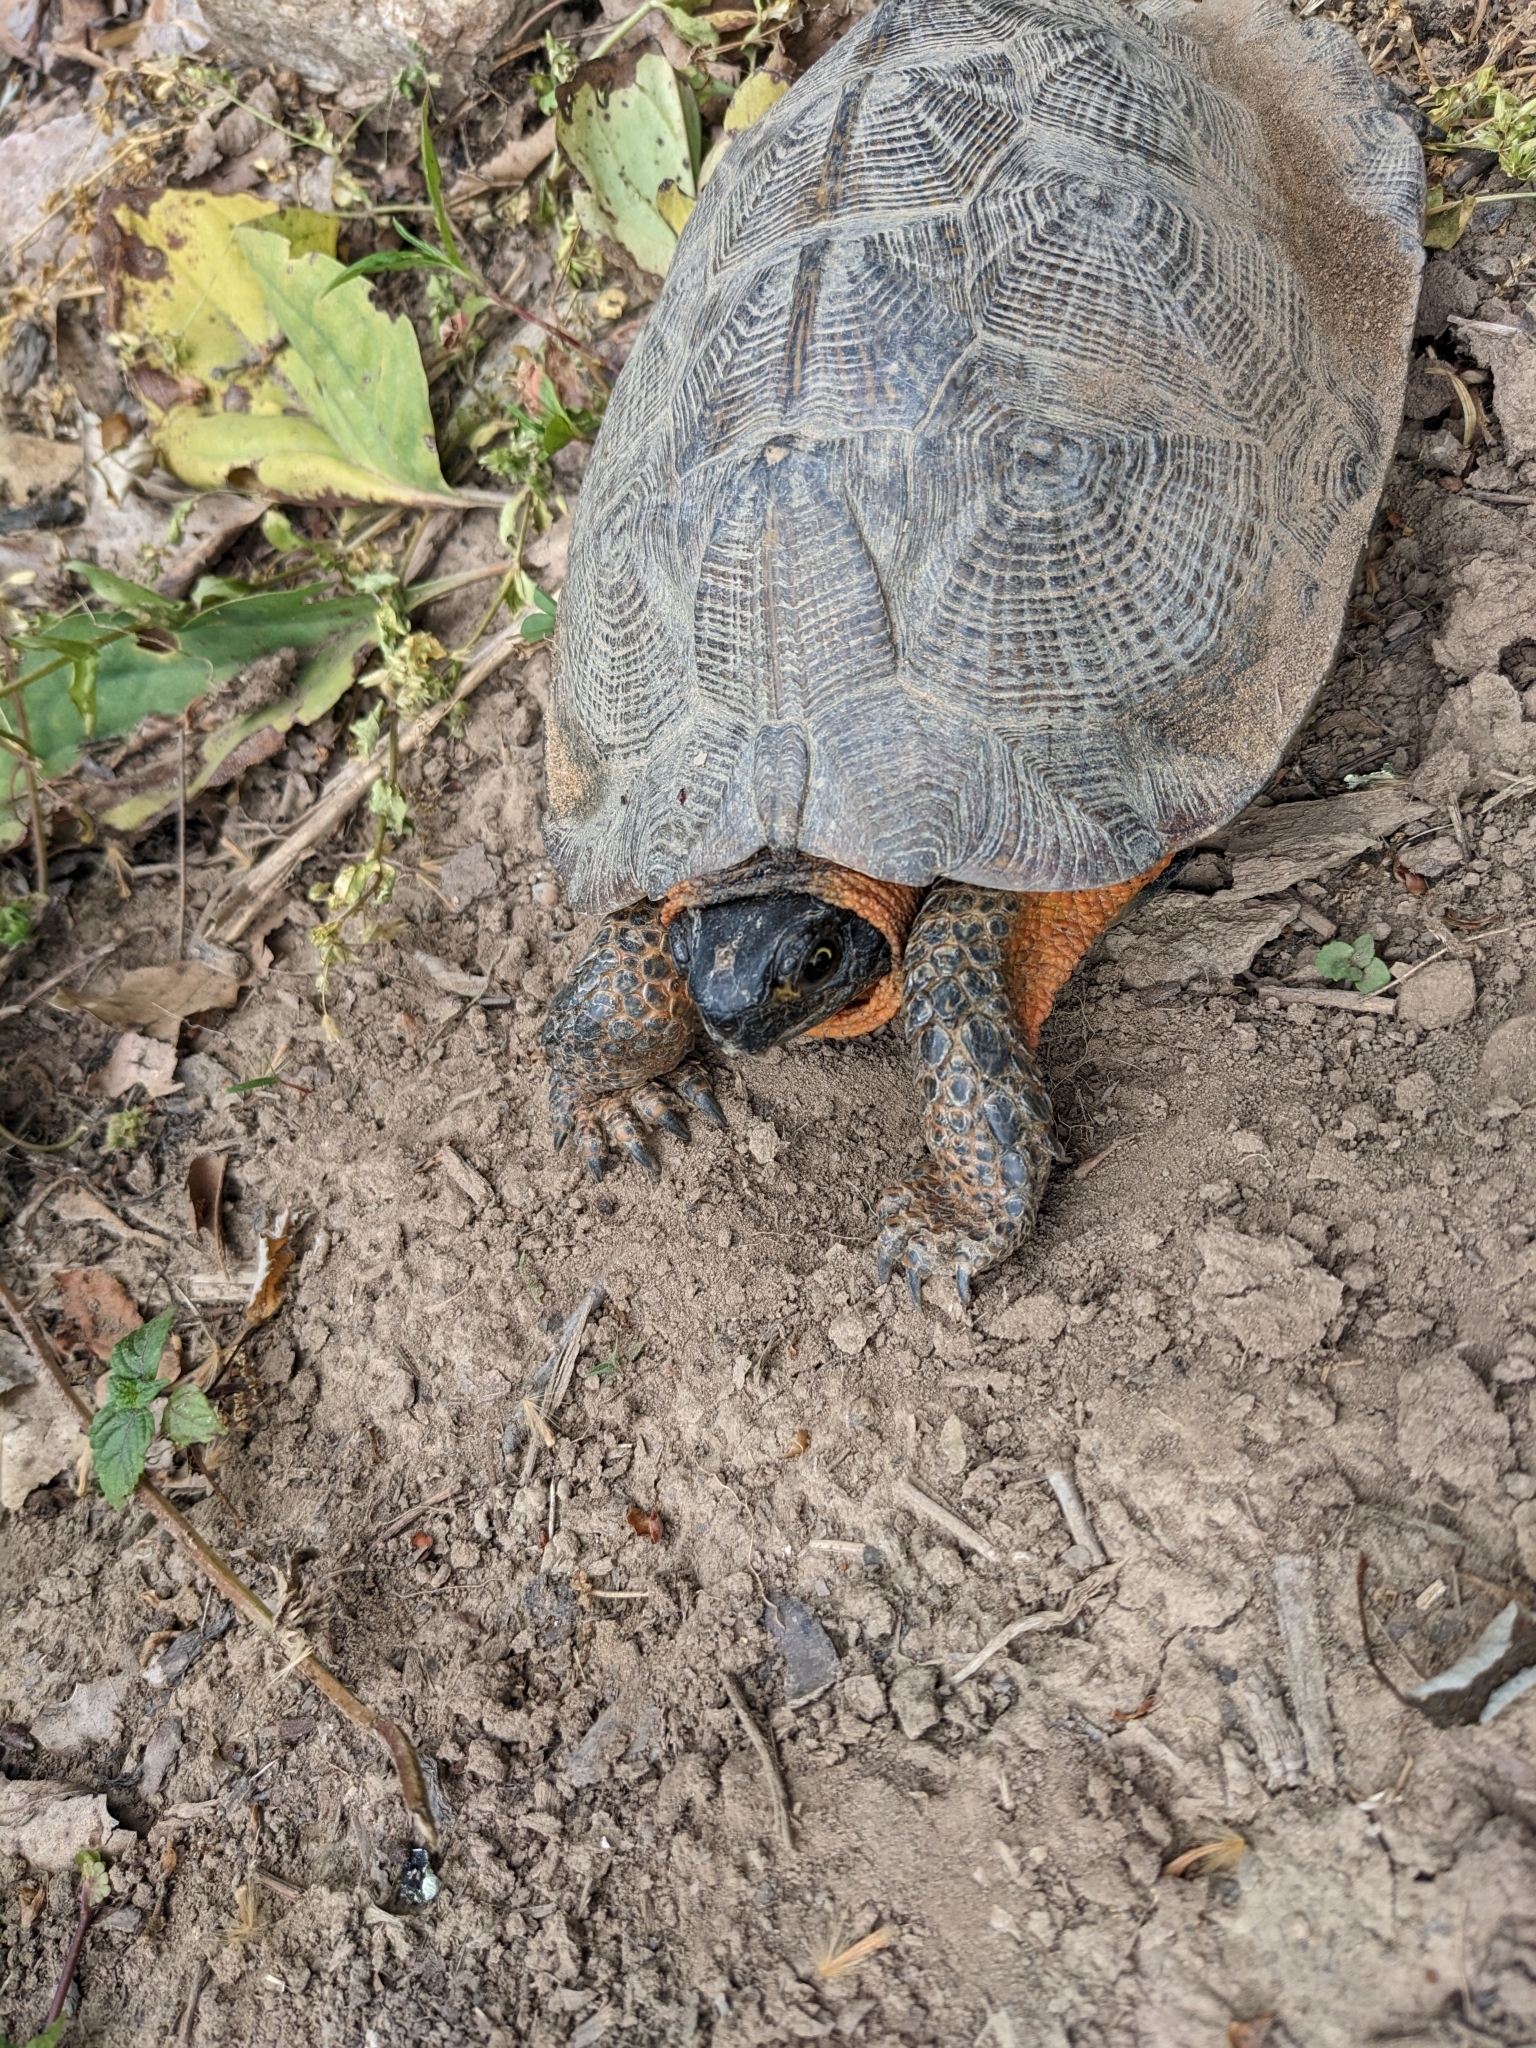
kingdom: Animalia
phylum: Chordata
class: Testudines
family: Emydidae
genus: Glyptemys
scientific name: Glyptemys insculpta
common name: Wood turtle
